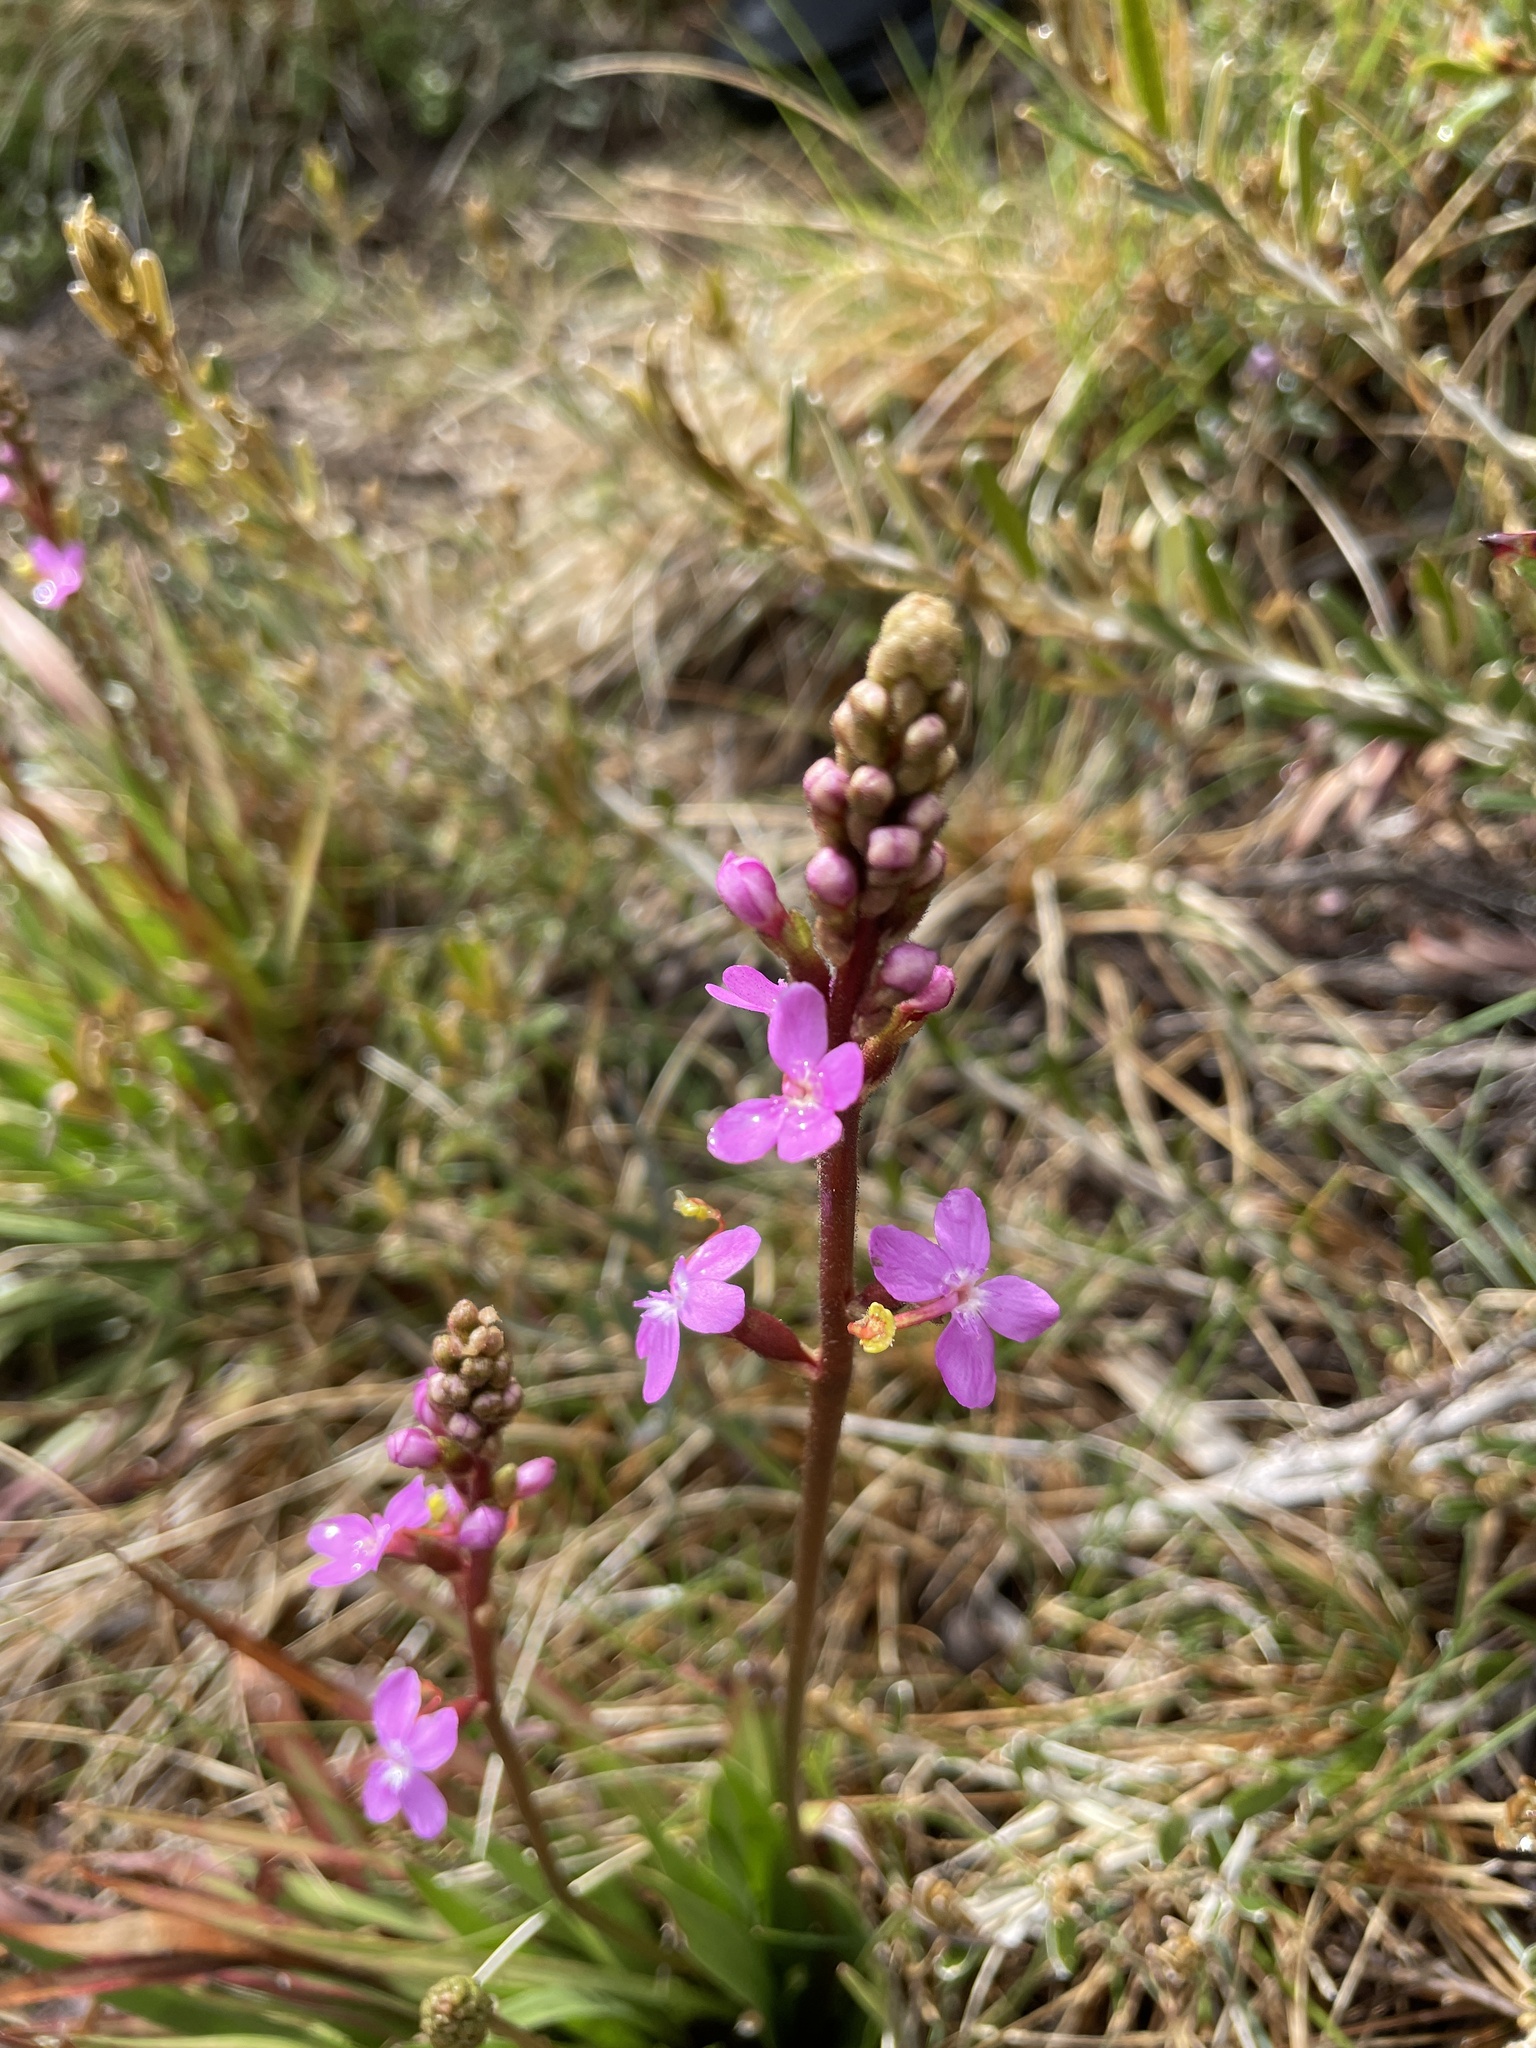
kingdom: Plantae
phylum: Tracheophyta
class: Magnoliopsida
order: Asterales
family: Stylidiaceae
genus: Stylidium
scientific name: Stylidium
